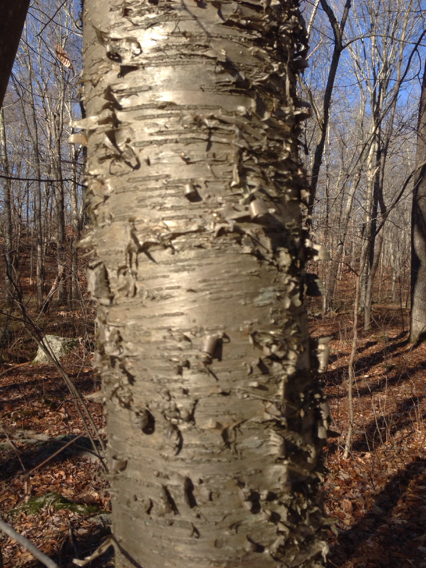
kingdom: Plantae
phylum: Tracheophyta
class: Magnoliopsida
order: Fagales
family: Betulaceae
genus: Betula
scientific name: Betula alleghaniensis
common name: Yellow birch
